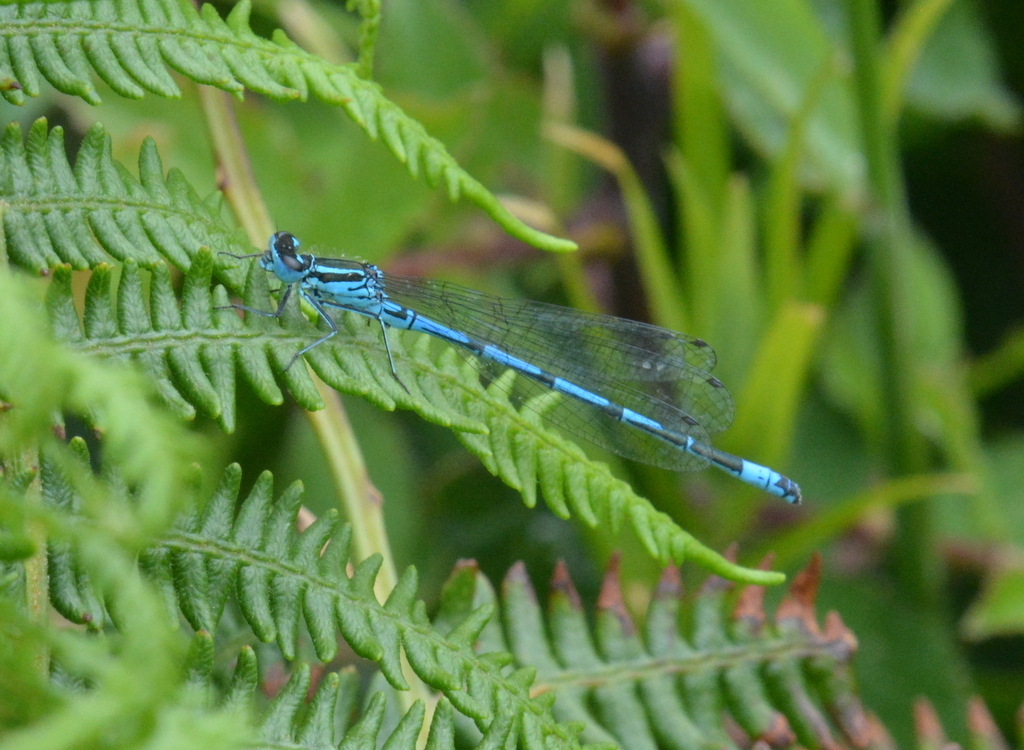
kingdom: Animalia
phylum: Arthropoda
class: Insecta
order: Odonata
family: Coenagrionidae
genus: Coenagrion
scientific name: Coenagrion puella
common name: Azure damselfly
